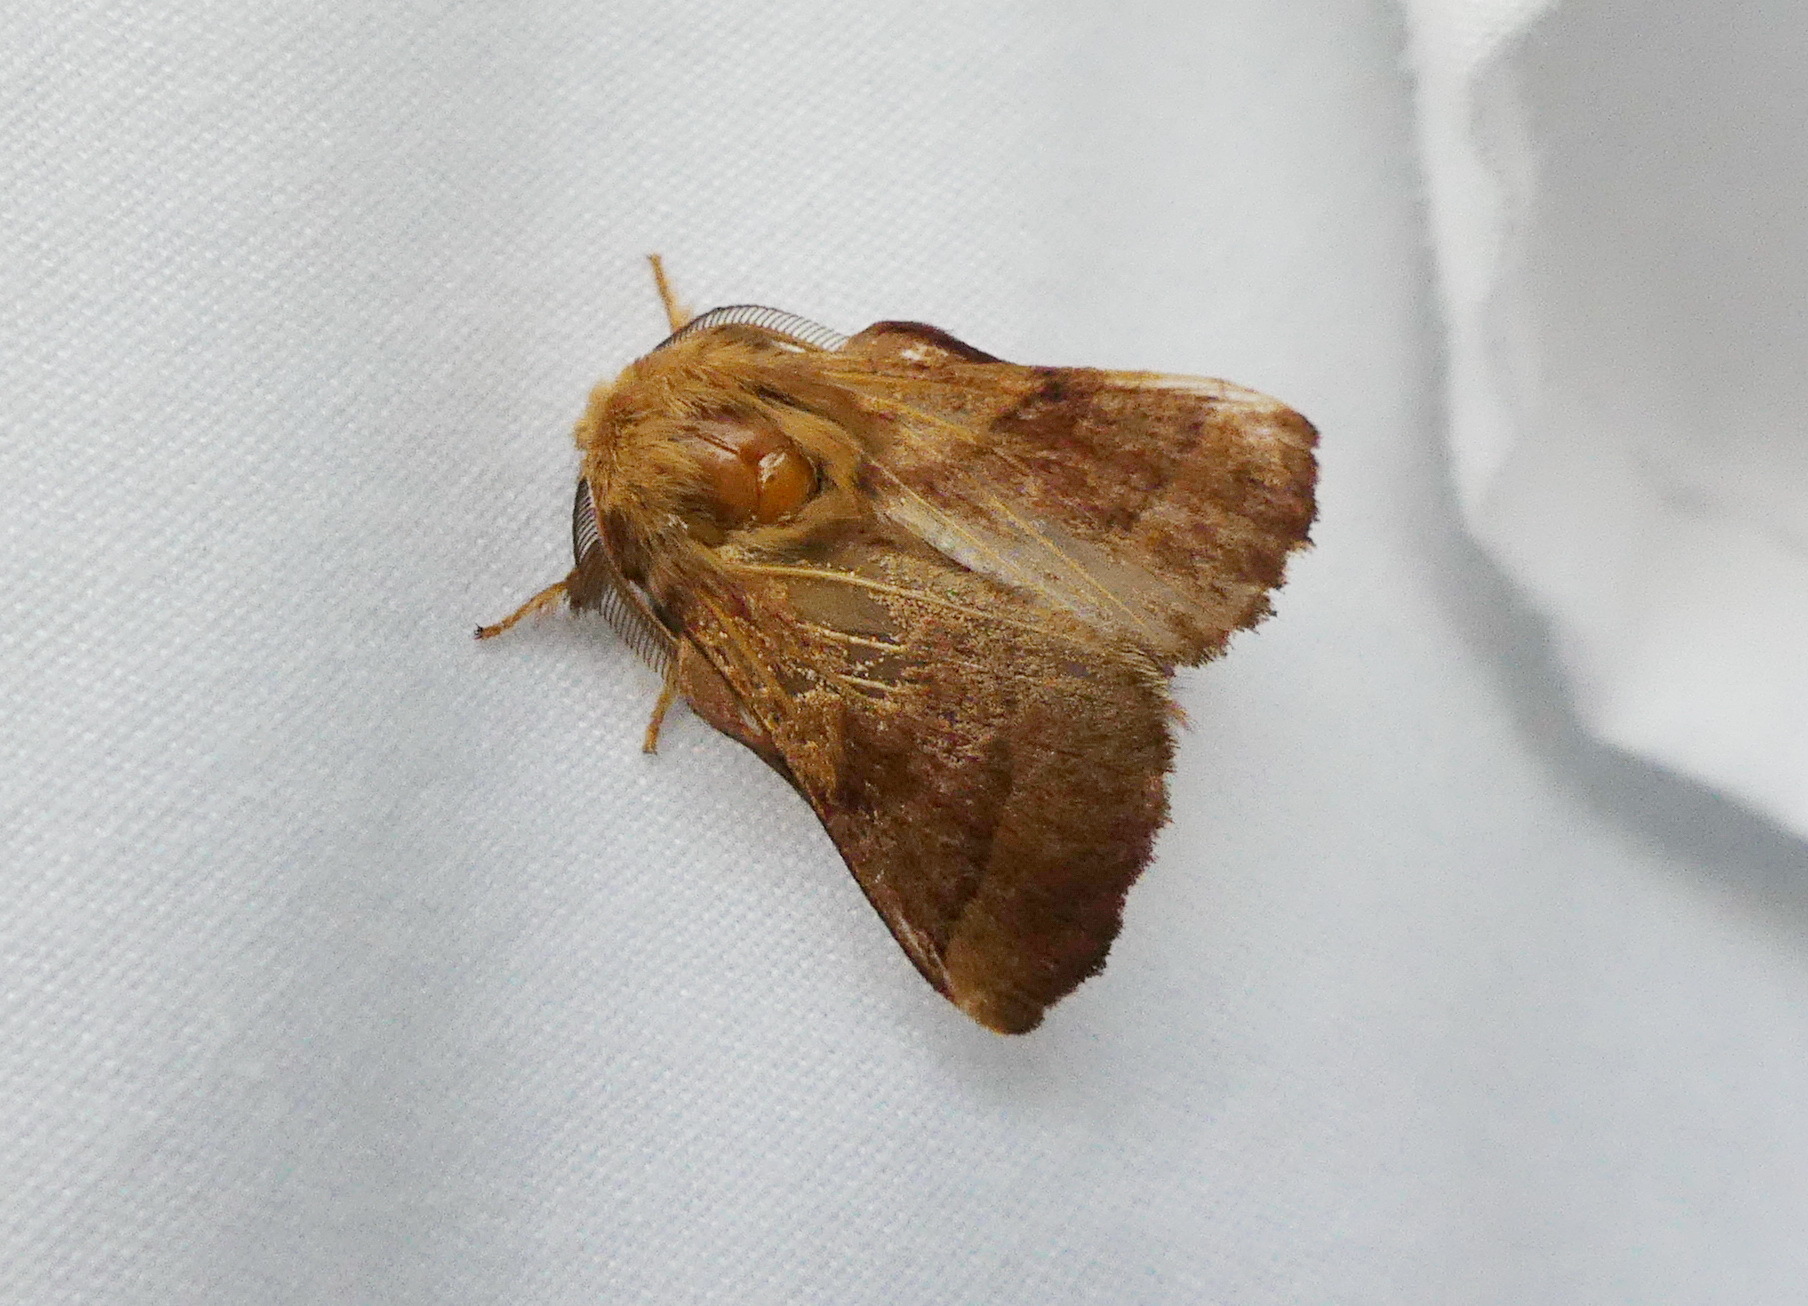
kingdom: Animalia
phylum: Arthropoda
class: Insecta
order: Lepidoptera
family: Lasiocampidae
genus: Malacosoma
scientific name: Malacosoma disstria
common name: Forest tent caterpillar
